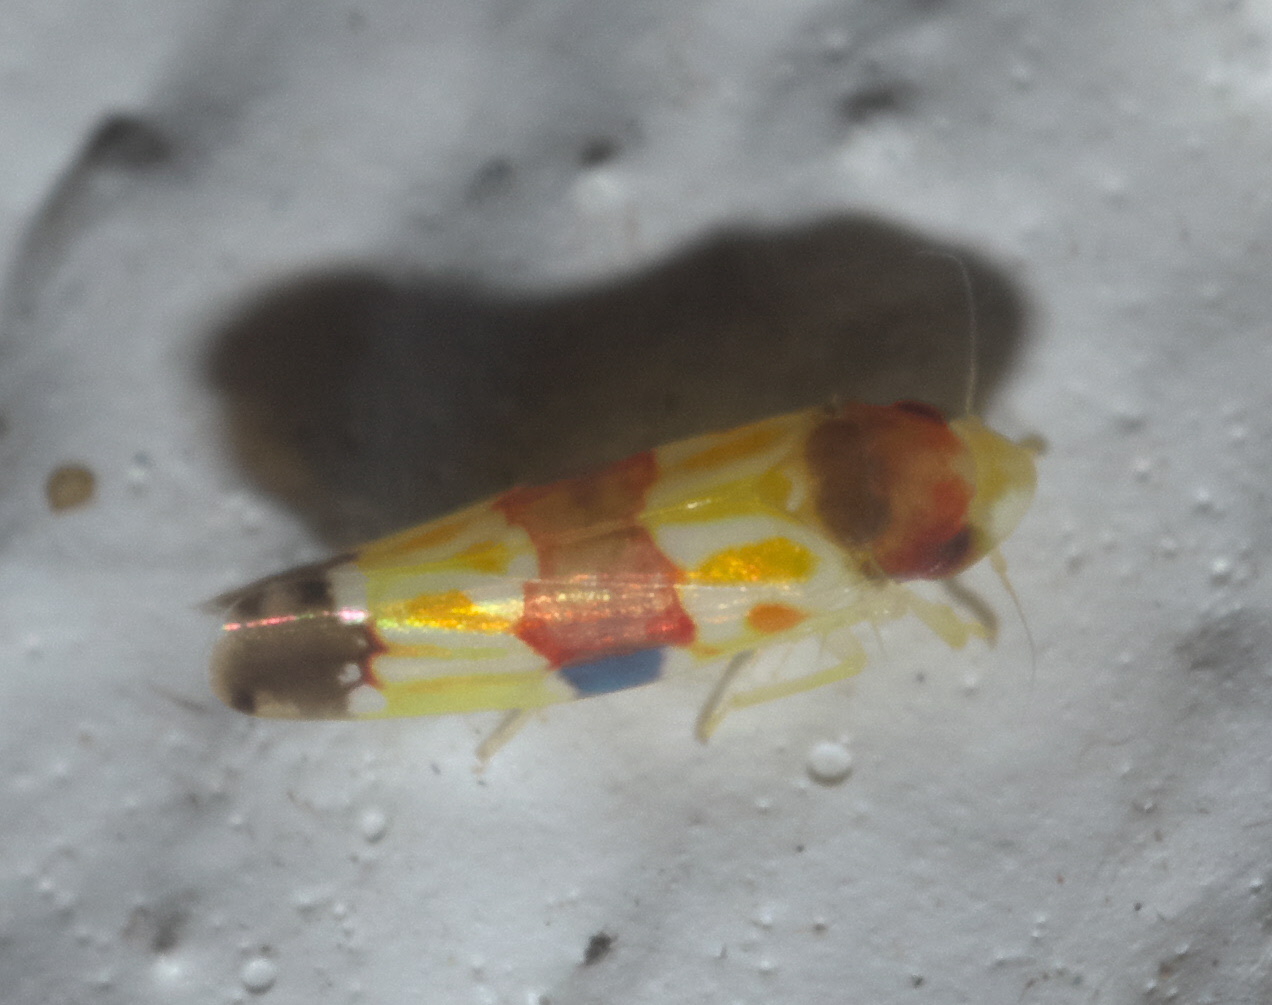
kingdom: Animalia
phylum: Arthropoda
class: Insecta
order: Hemiptera
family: Cicadellidae
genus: Erythroneura
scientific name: Erythroneura diva
